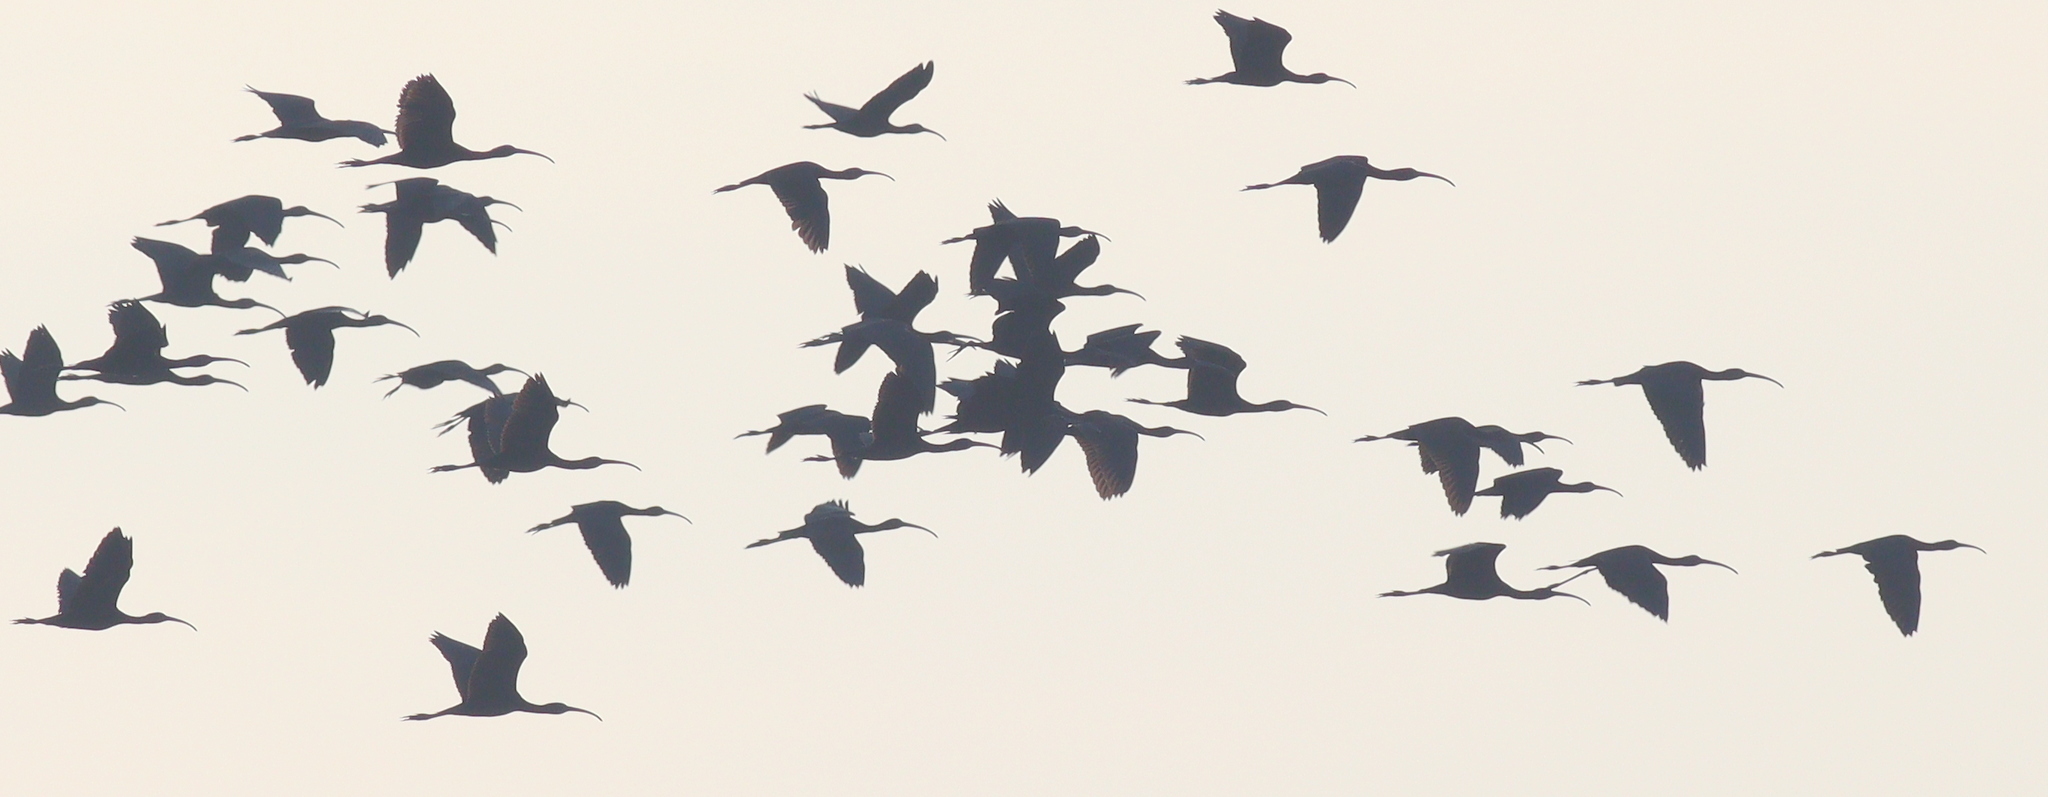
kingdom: Animalia
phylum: Chordata
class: Aves
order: Pelecaniformes
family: Threskiornithidae
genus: Plegadis
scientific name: Plegadis falcinellus
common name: Glossy ibis
